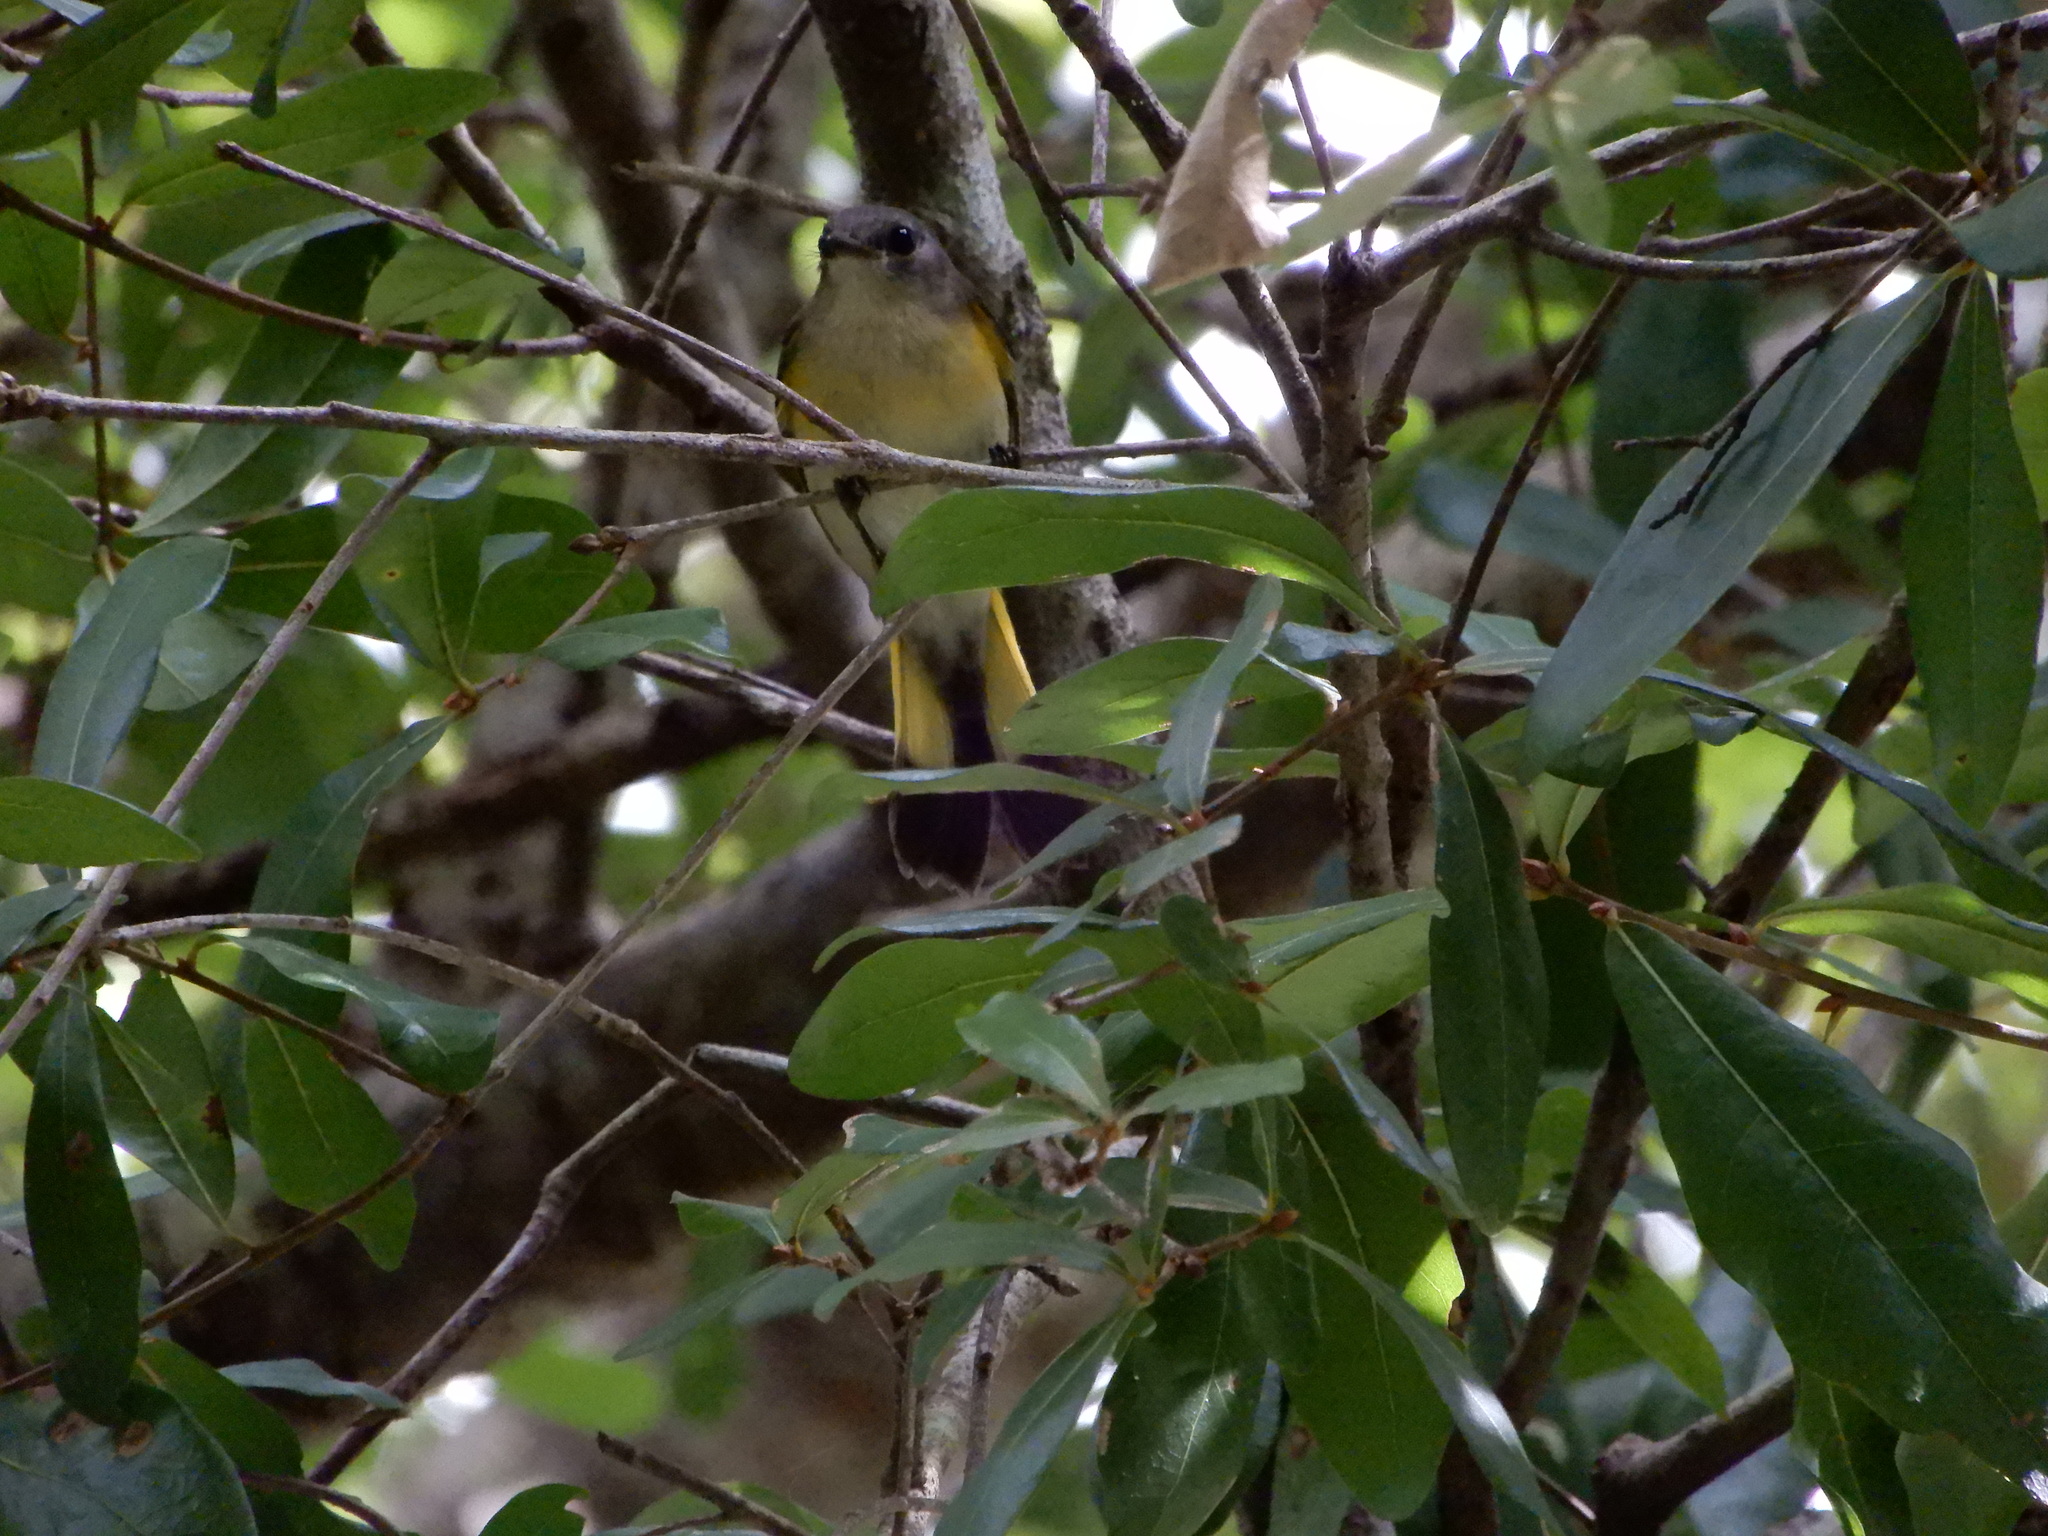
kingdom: Animalia
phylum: Chordata
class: Aves
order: Passeriformes
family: Parulidae
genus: Setophaga
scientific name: Setophaga ruticilla
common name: American redstart
